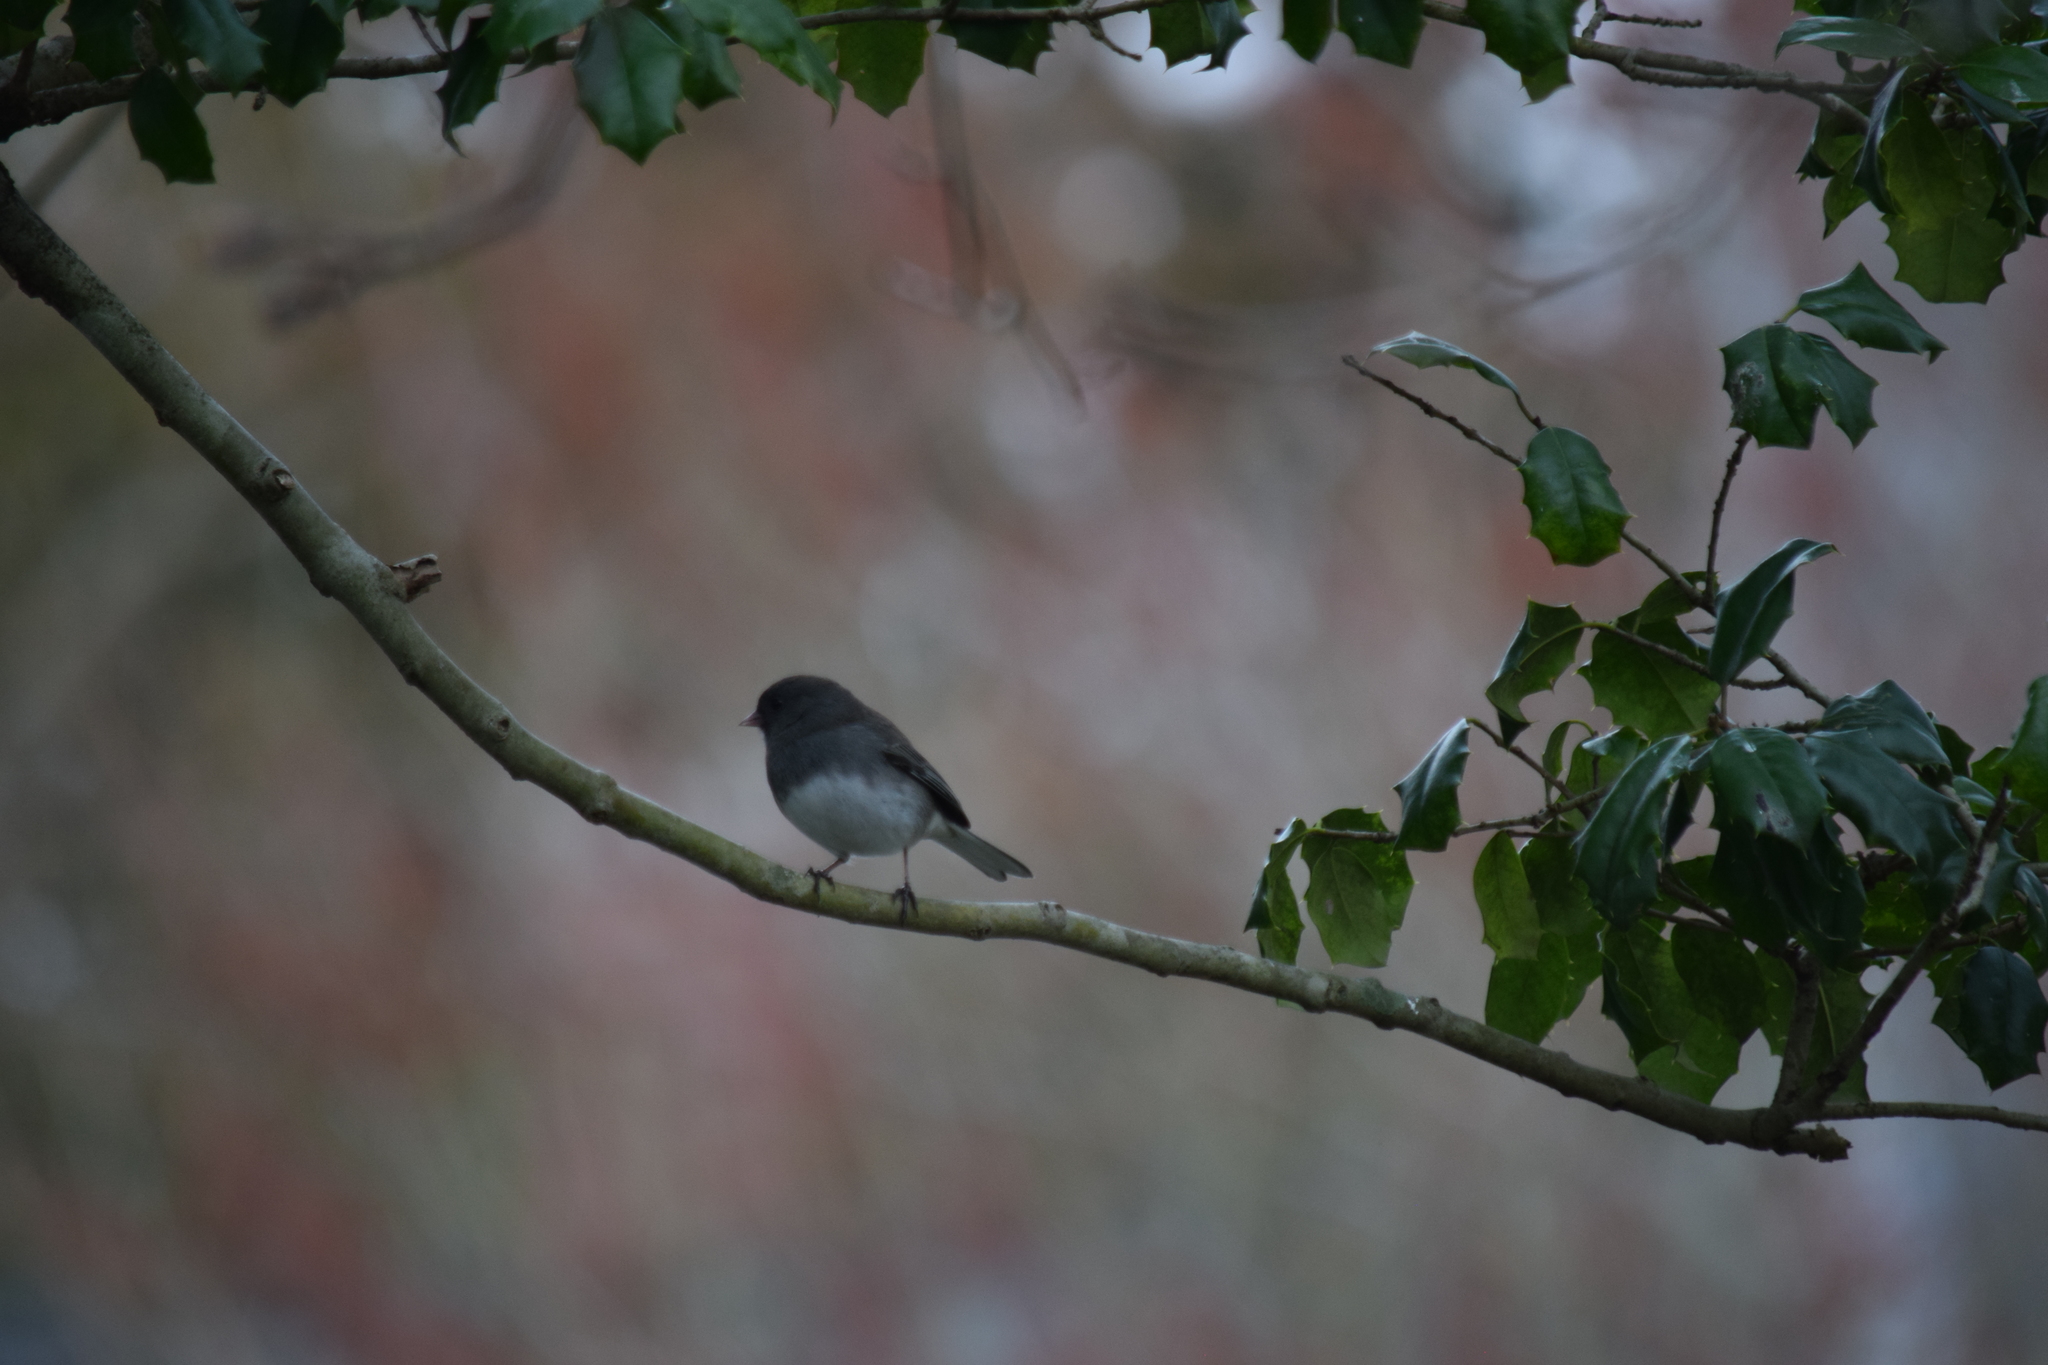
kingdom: Animalia
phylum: Chordata
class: Aves
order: Passeriformes
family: Passerellidae
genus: Junco
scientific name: Junco hyemalis
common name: Dark-eyed junco
